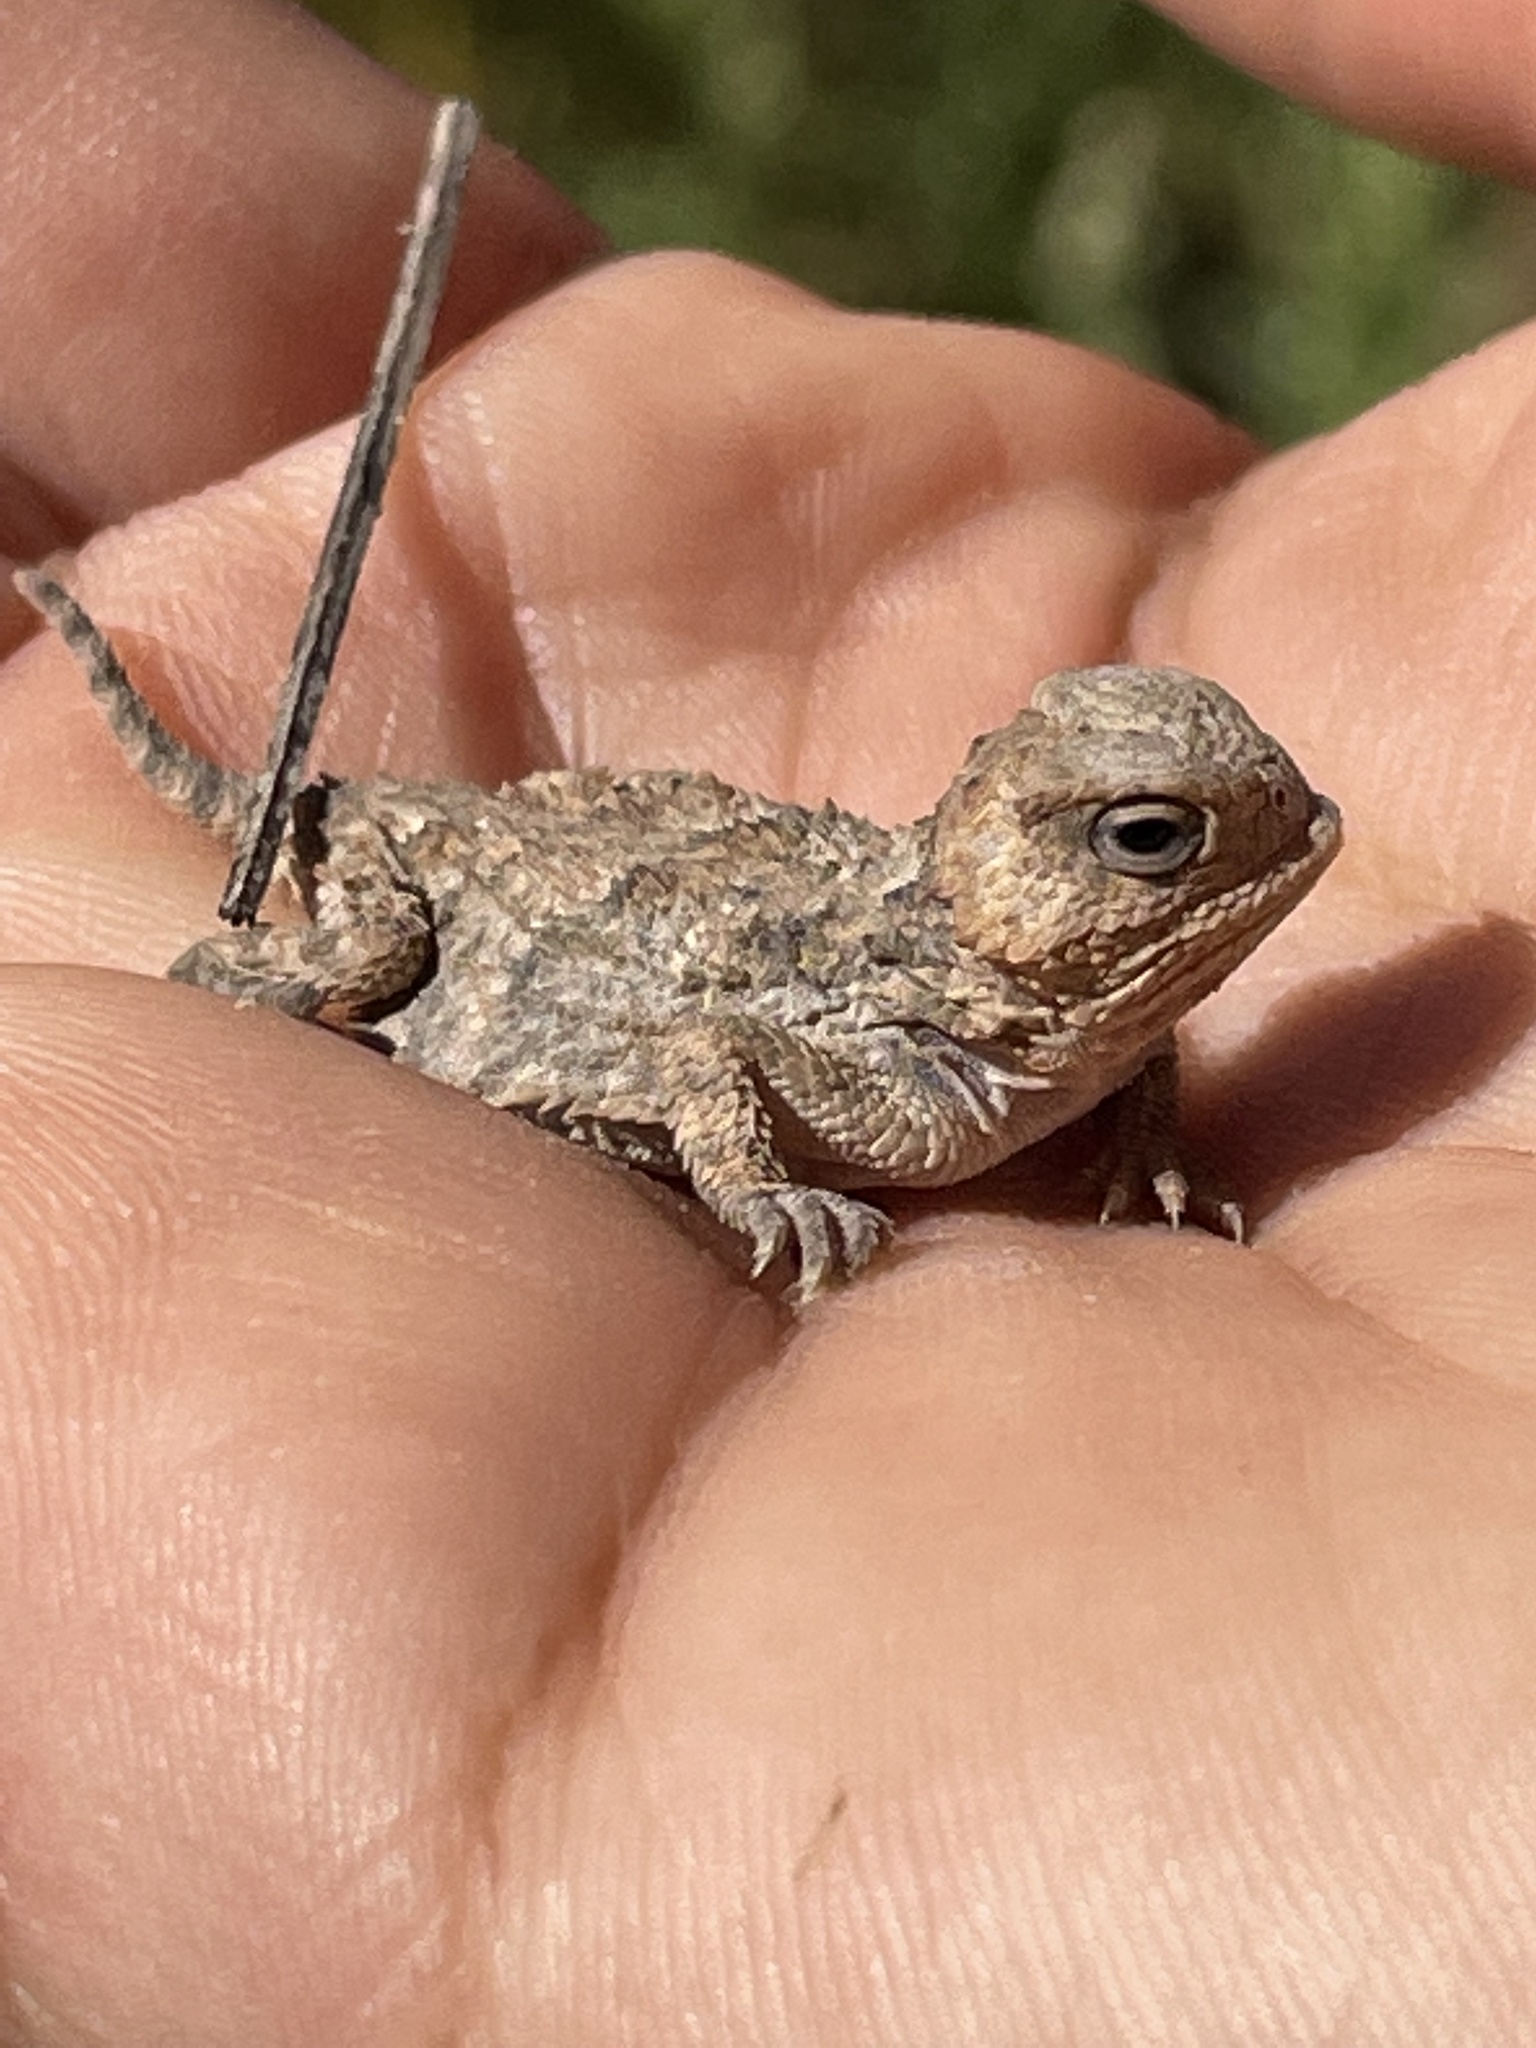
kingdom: Animalia
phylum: Chordata
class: Squamata
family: Phrynosomatidae
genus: Phrynosoma
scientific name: Phrynosoma hernandesi
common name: Greater short-horned lizard
